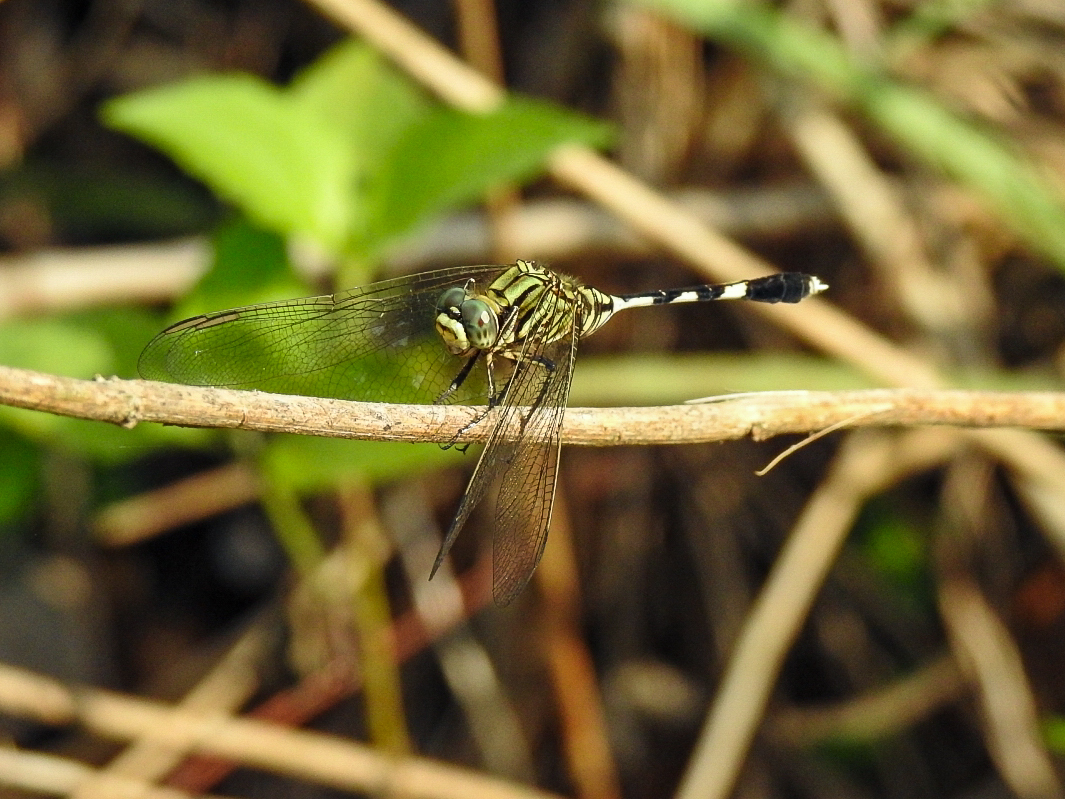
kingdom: Animalia
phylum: Arthropoda
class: Insecta
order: Odonata
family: Libellulidae
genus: Orthetrum
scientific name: Orthetrum sabina
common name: Slender skimmer
